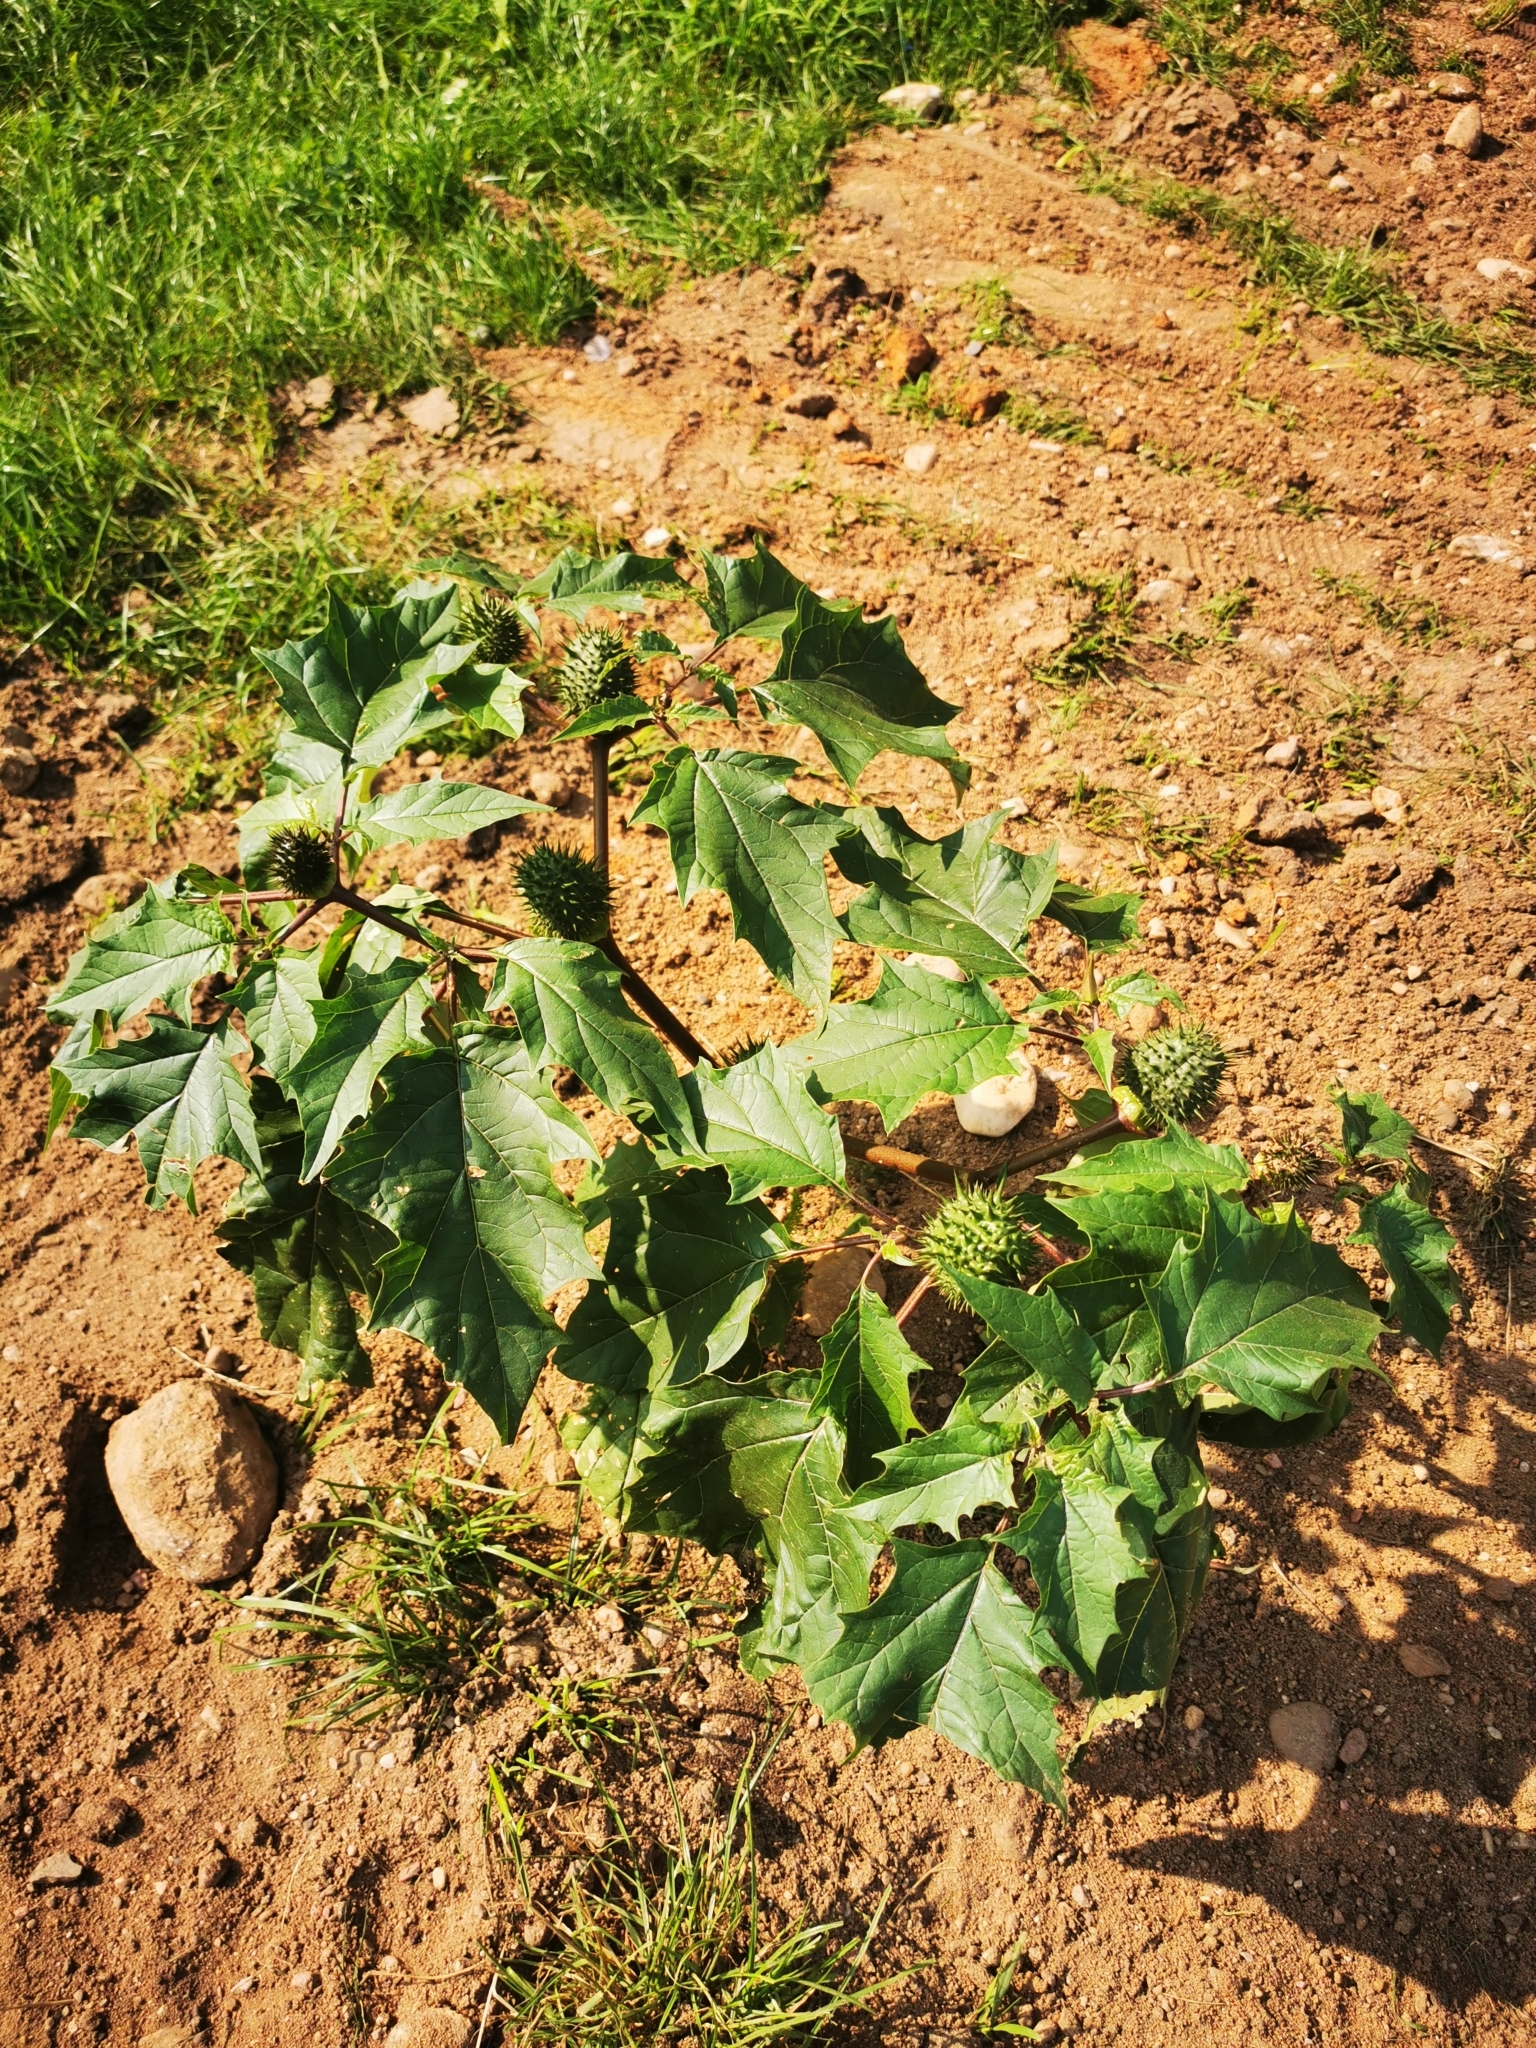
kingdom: Plantae
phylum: Tracheophyta
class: Magnoliopsida
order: Solanales
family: Solanaceae
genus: Datura
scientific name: Datura stramonium
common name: Thorn-apple
